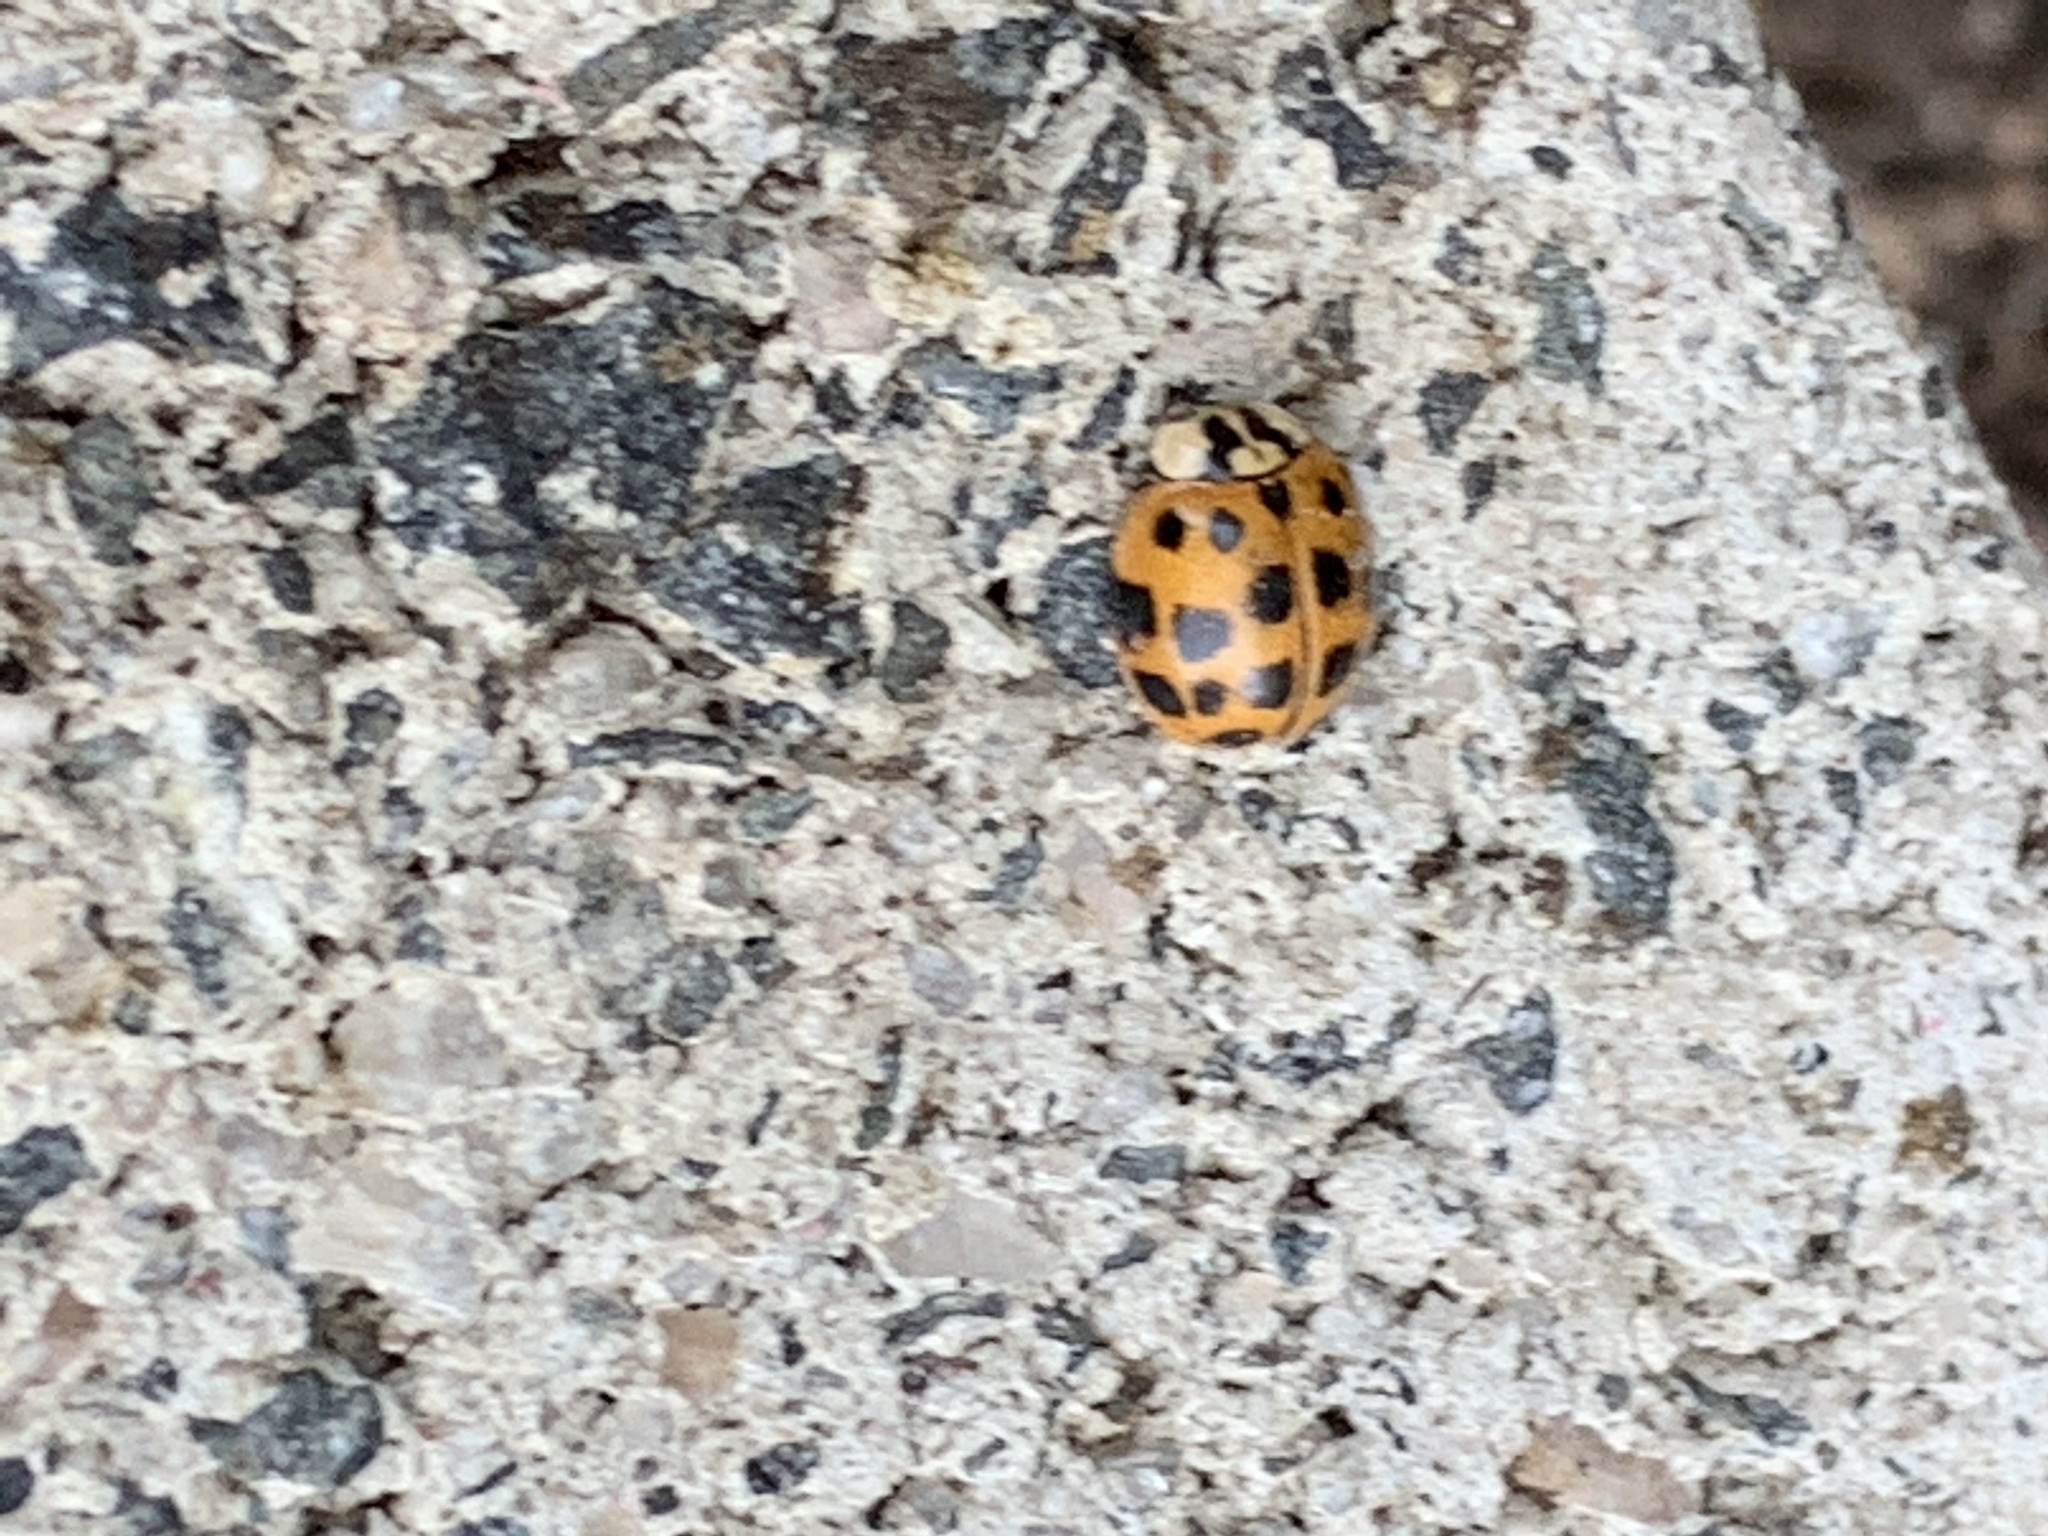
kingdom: Animalia
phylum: Arthropoda
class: Insecta
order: Coleoptera
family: Coccinellidae
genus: Harmonia
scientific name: Harmonia axyridis
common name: Harlequin ladybird
